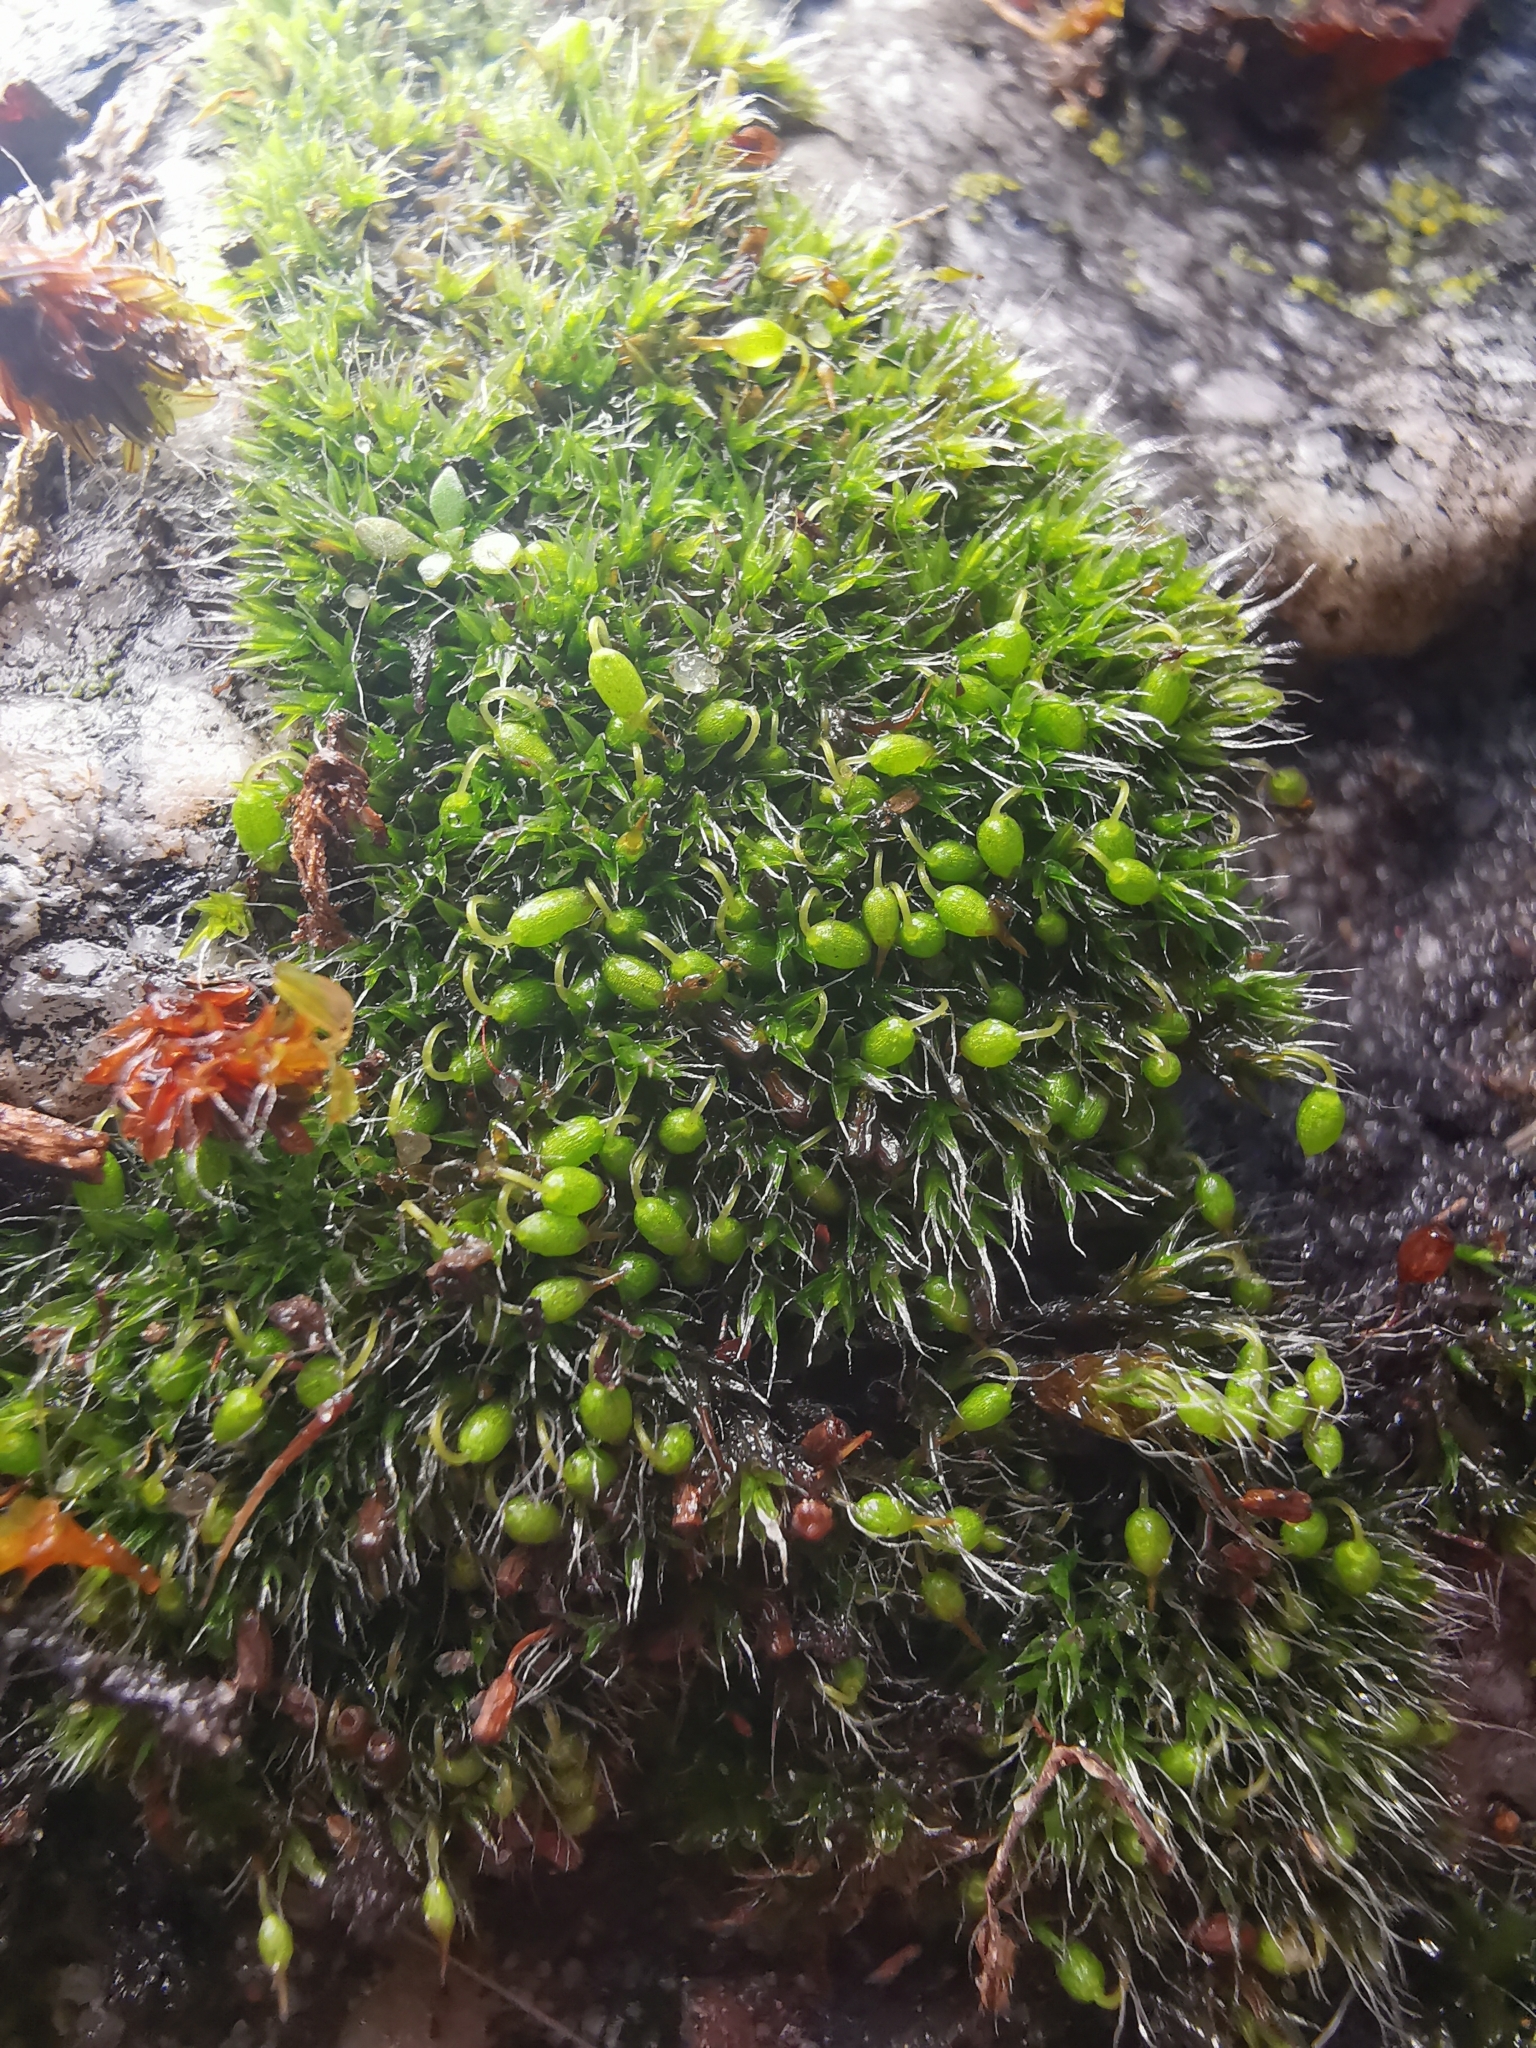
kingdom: Plantae
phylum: Bryophyta
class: Bryopsida
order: Grimmiales
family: Grimmiaceae
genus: Grimmia
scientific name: Grimmia pulvinata
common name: Grey-cushioned grimmia
